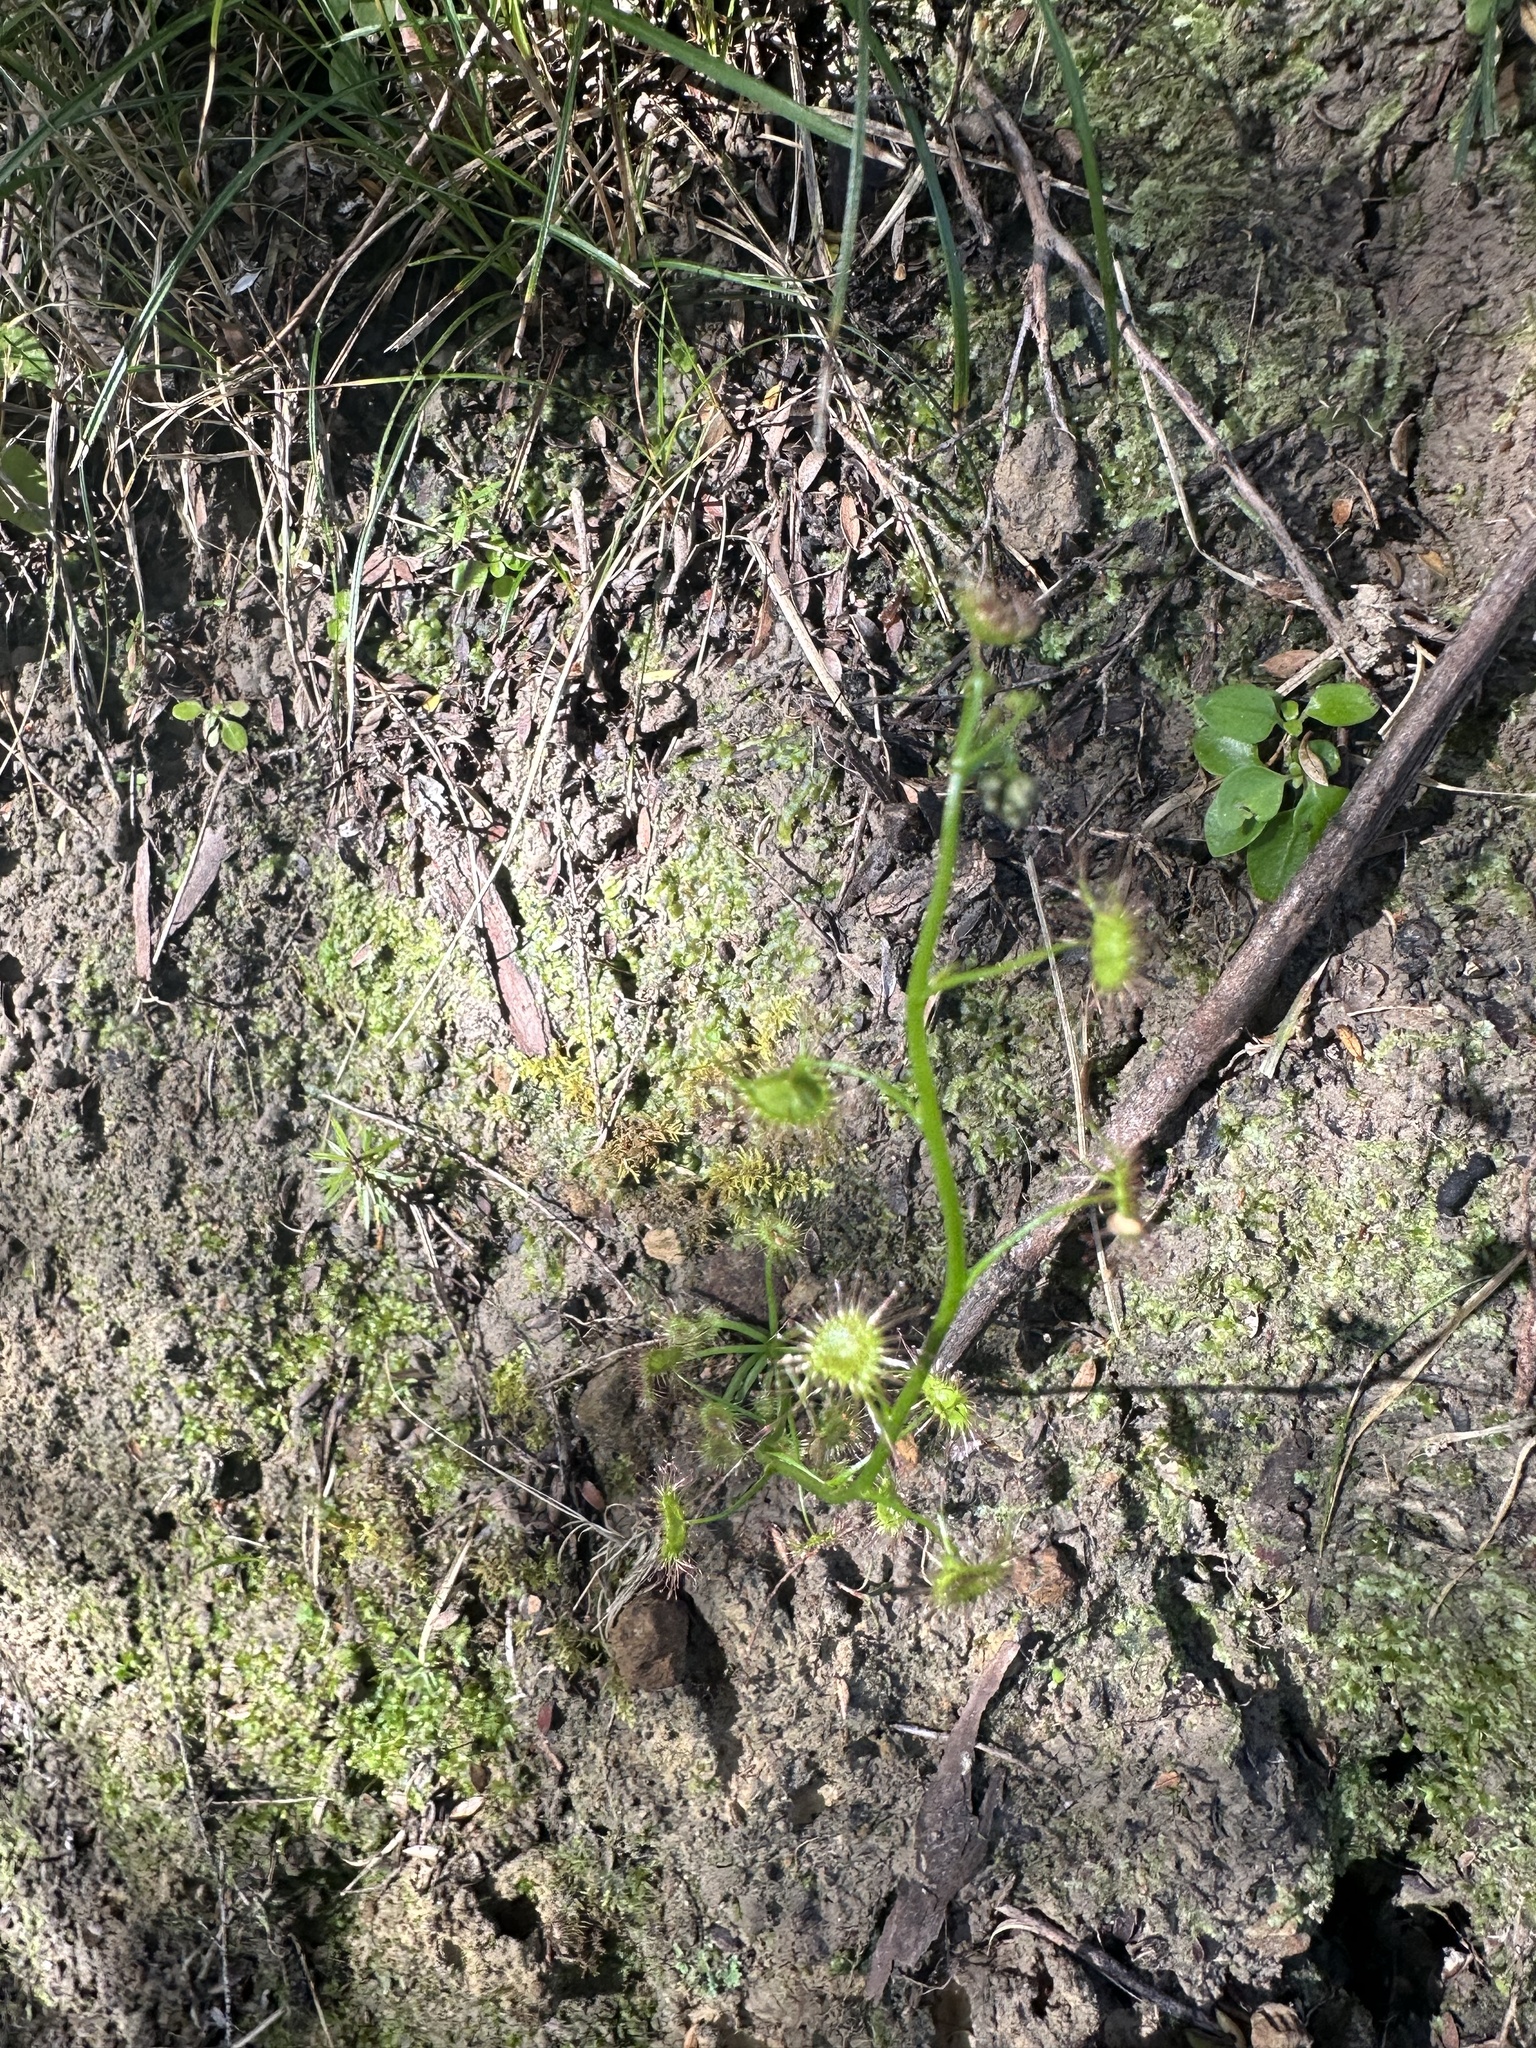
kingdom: Plantae
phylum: Tracheophyta
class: Magnoliopsida
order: Caryophyllales
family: Droseraceae
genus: Drosera
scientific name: Drosera peltata
